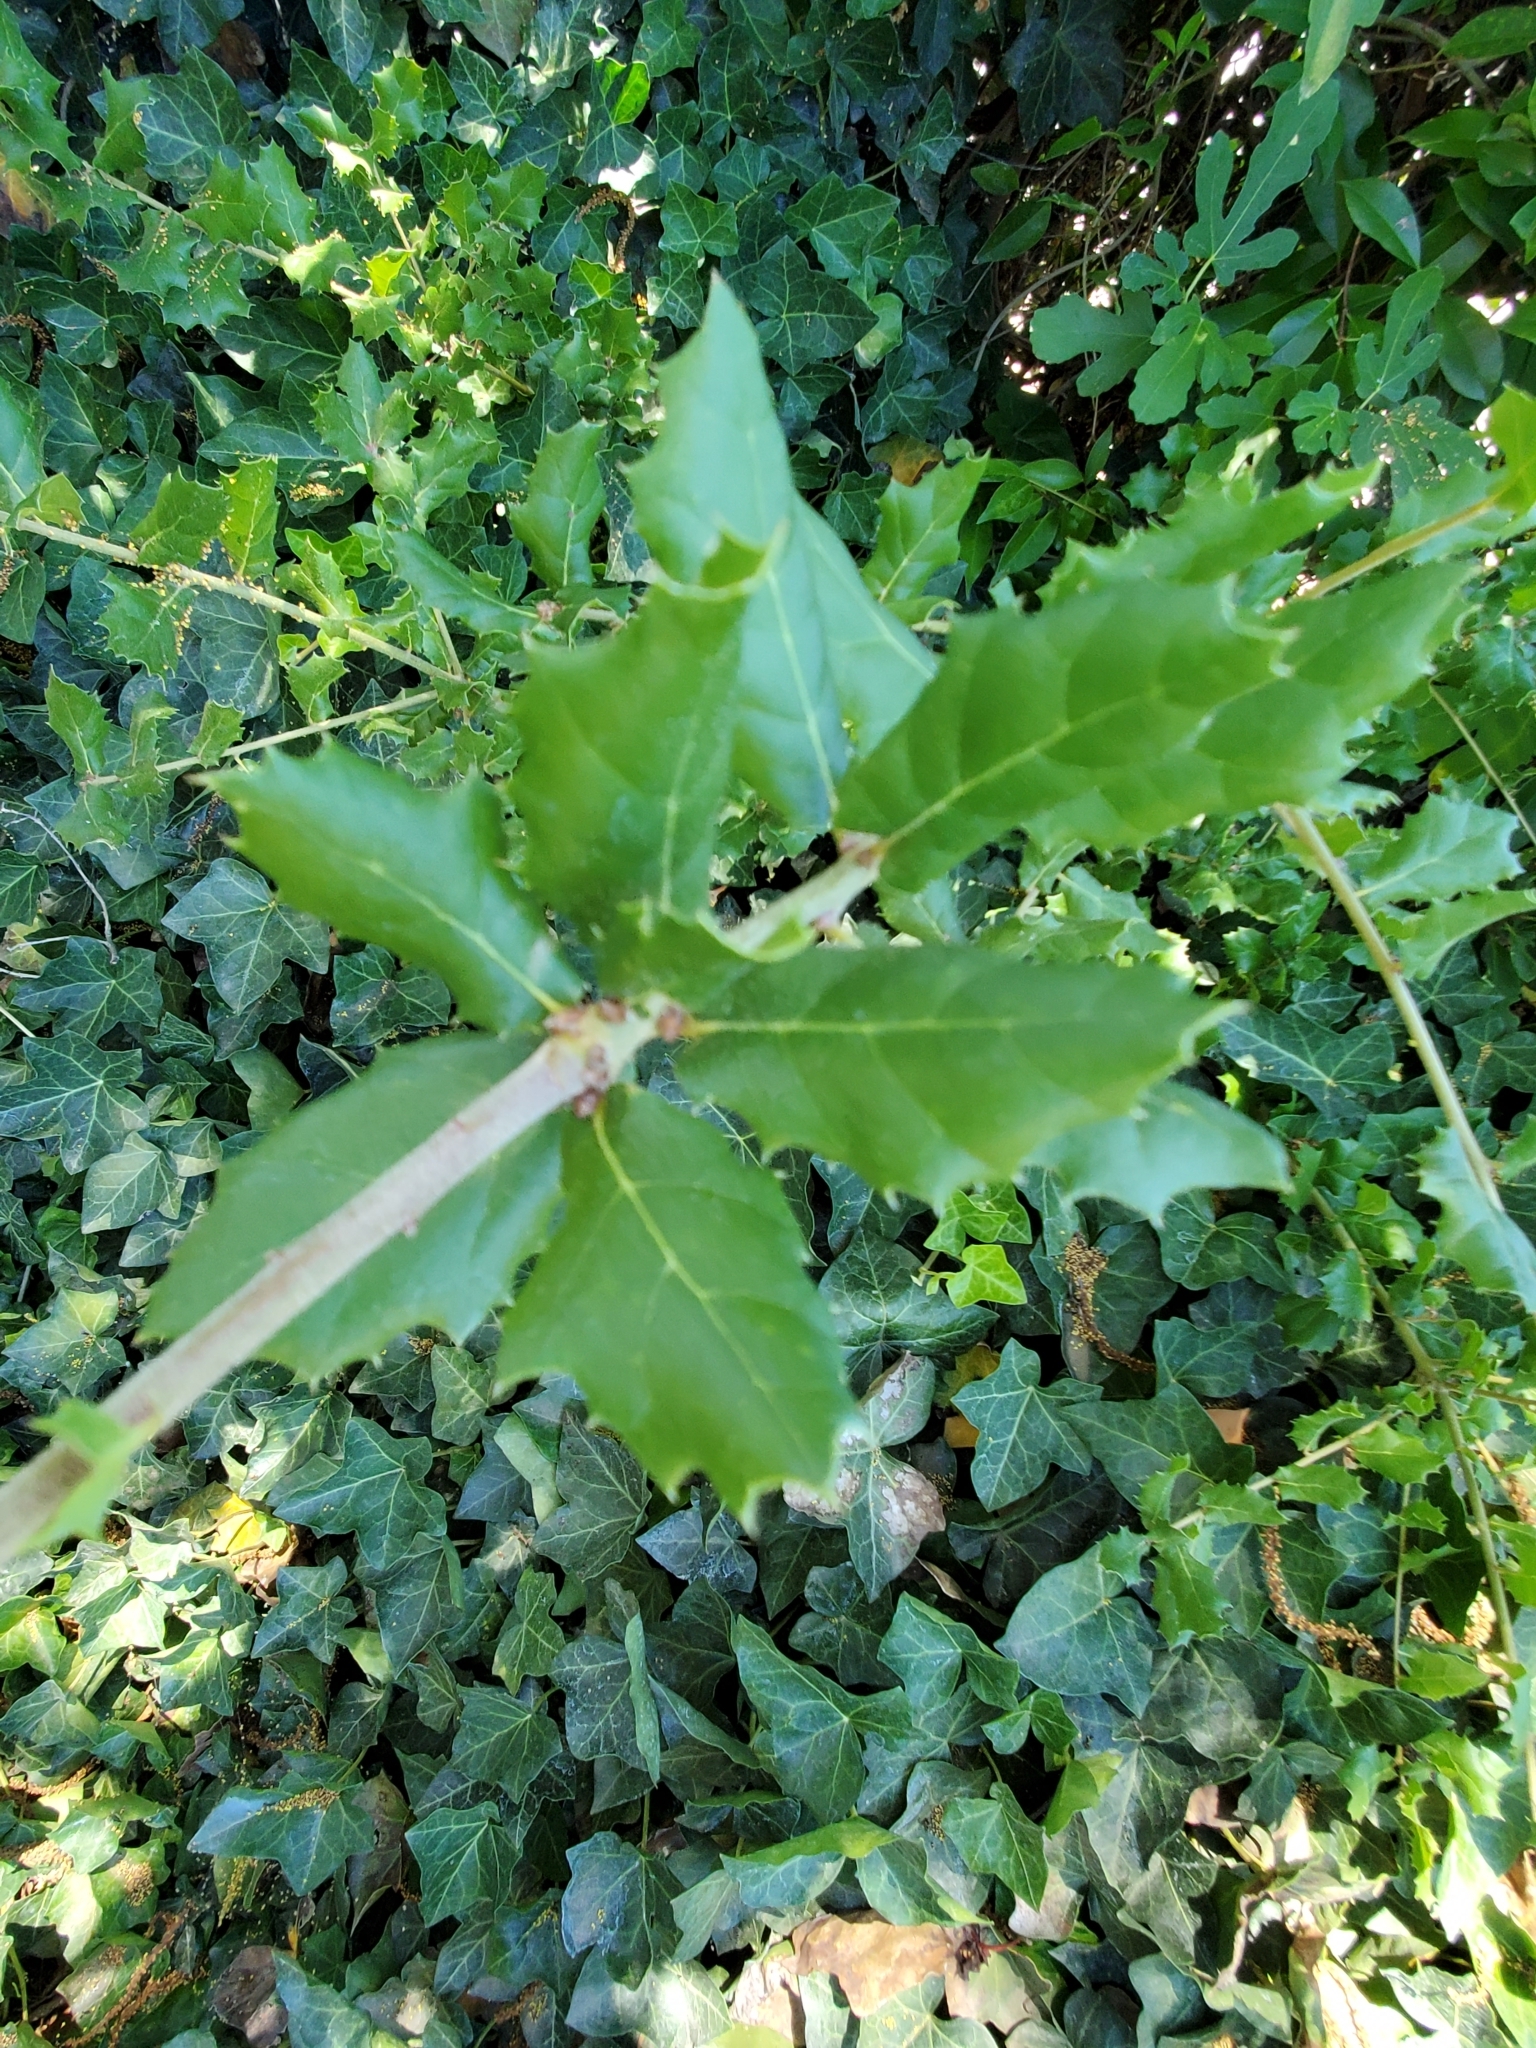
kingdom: Plantae
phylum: Tracheophyta
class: Magnoliopsida
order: Fagales
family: Fagaceae
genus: Quercus
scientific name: Quercus agrifolia
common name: California live oak
